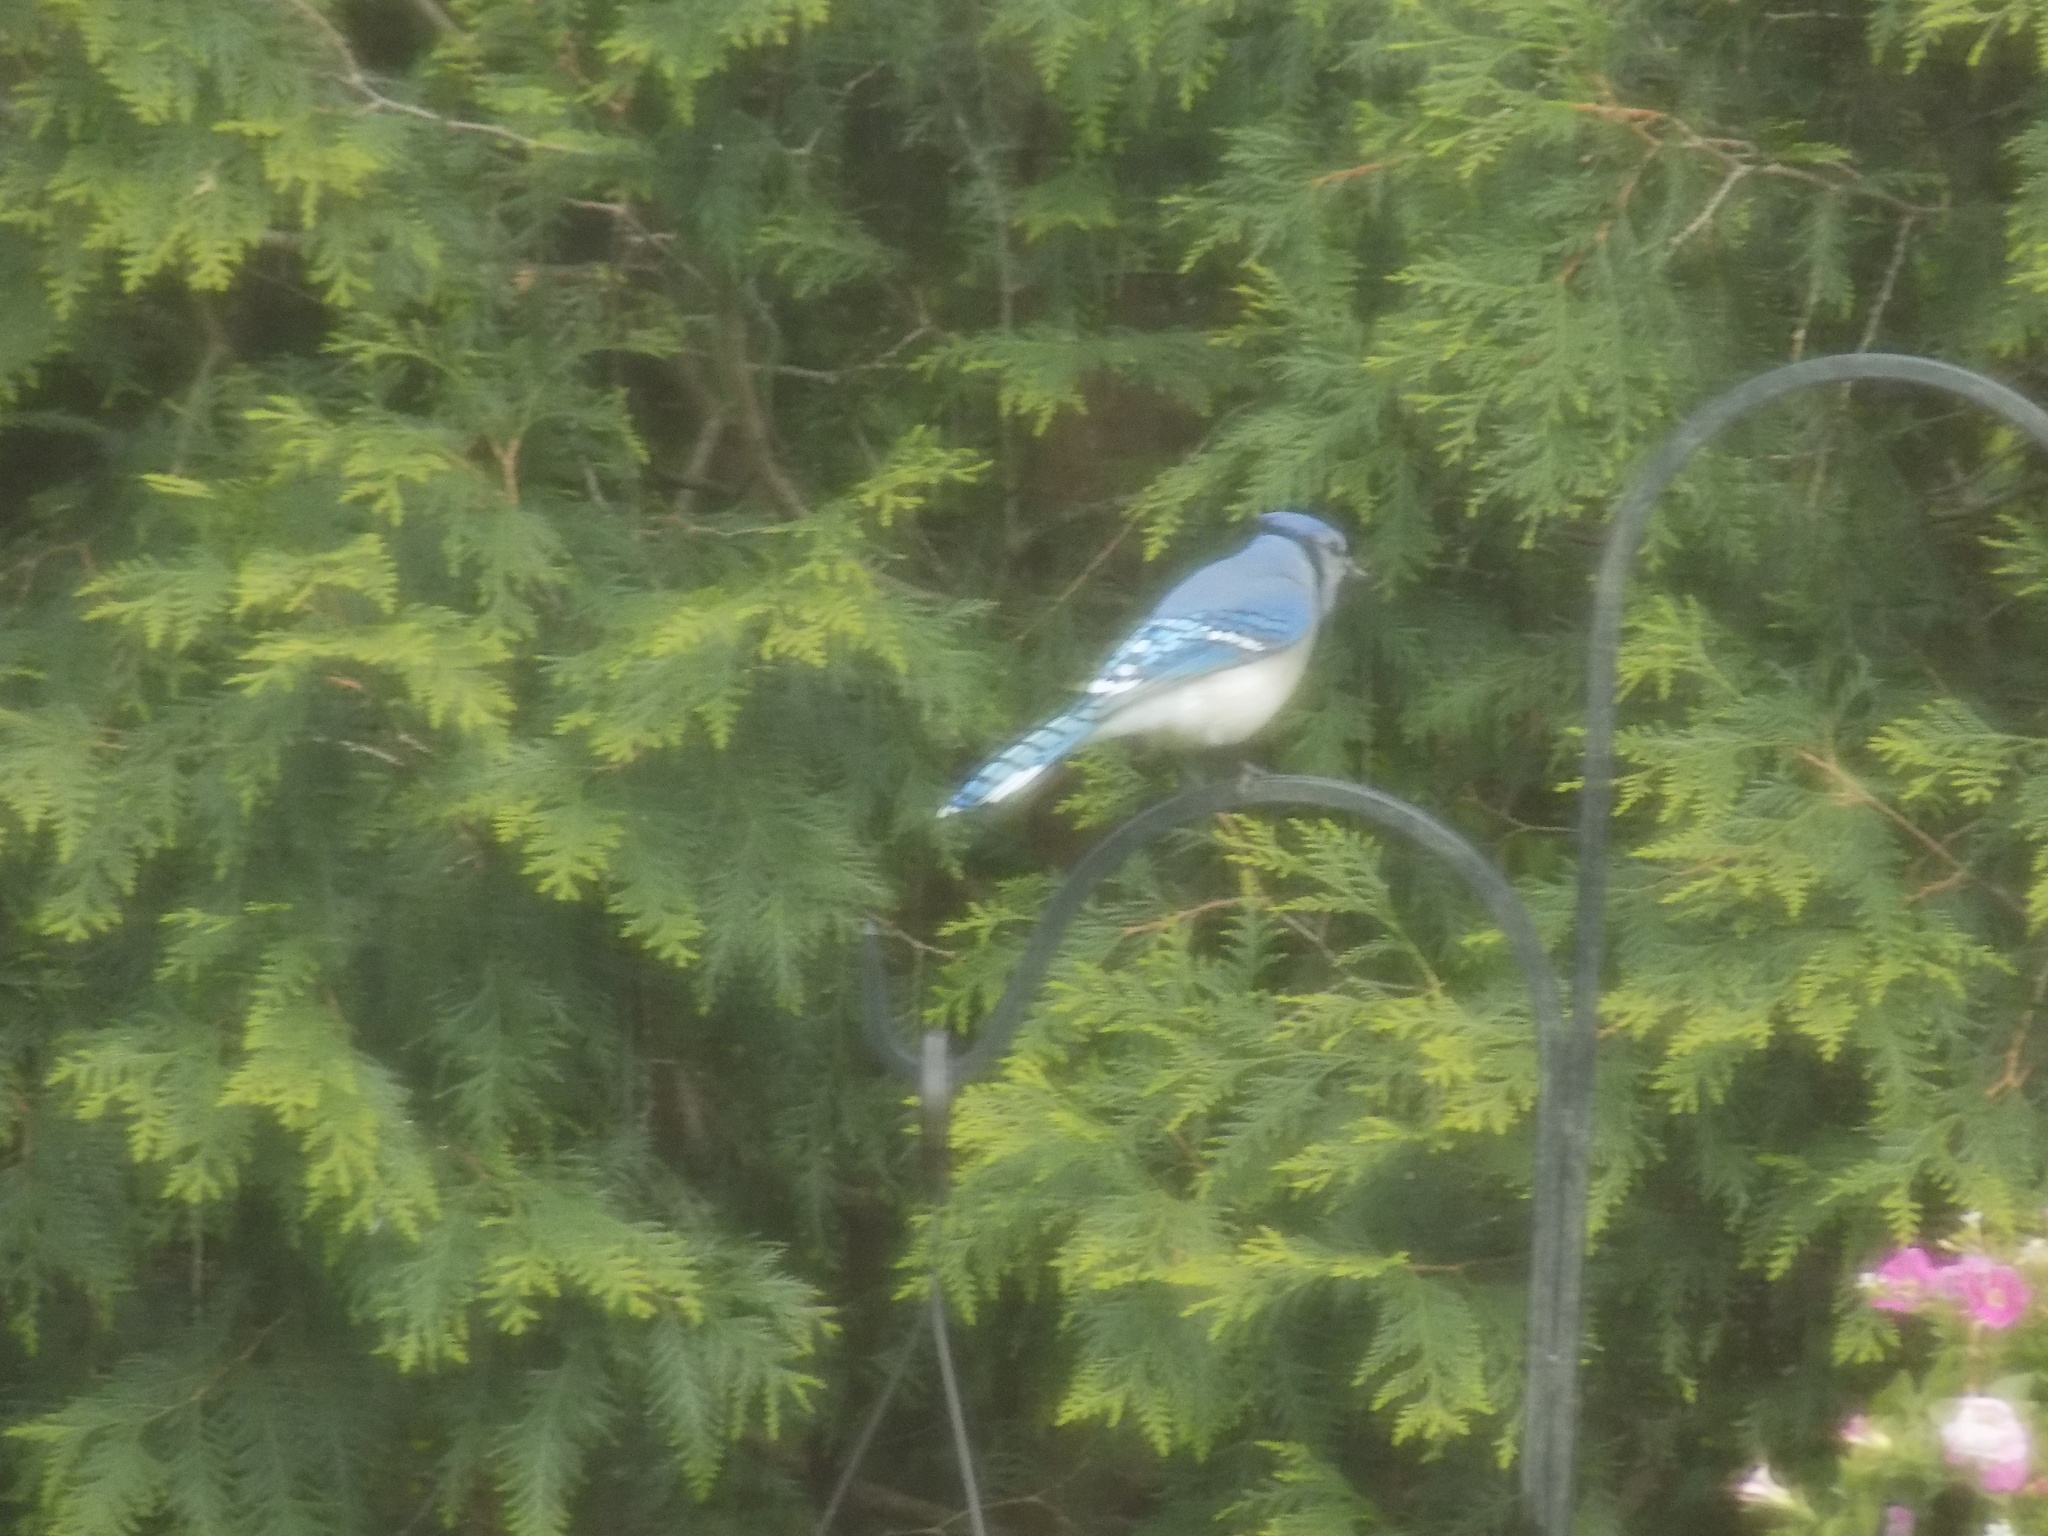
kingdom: Animalia
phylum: Chordata
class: Aves
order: Passeriformes
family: Corvidae
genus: Cyanocitta
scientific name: Cyanocitta cristata
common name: Blue jay
